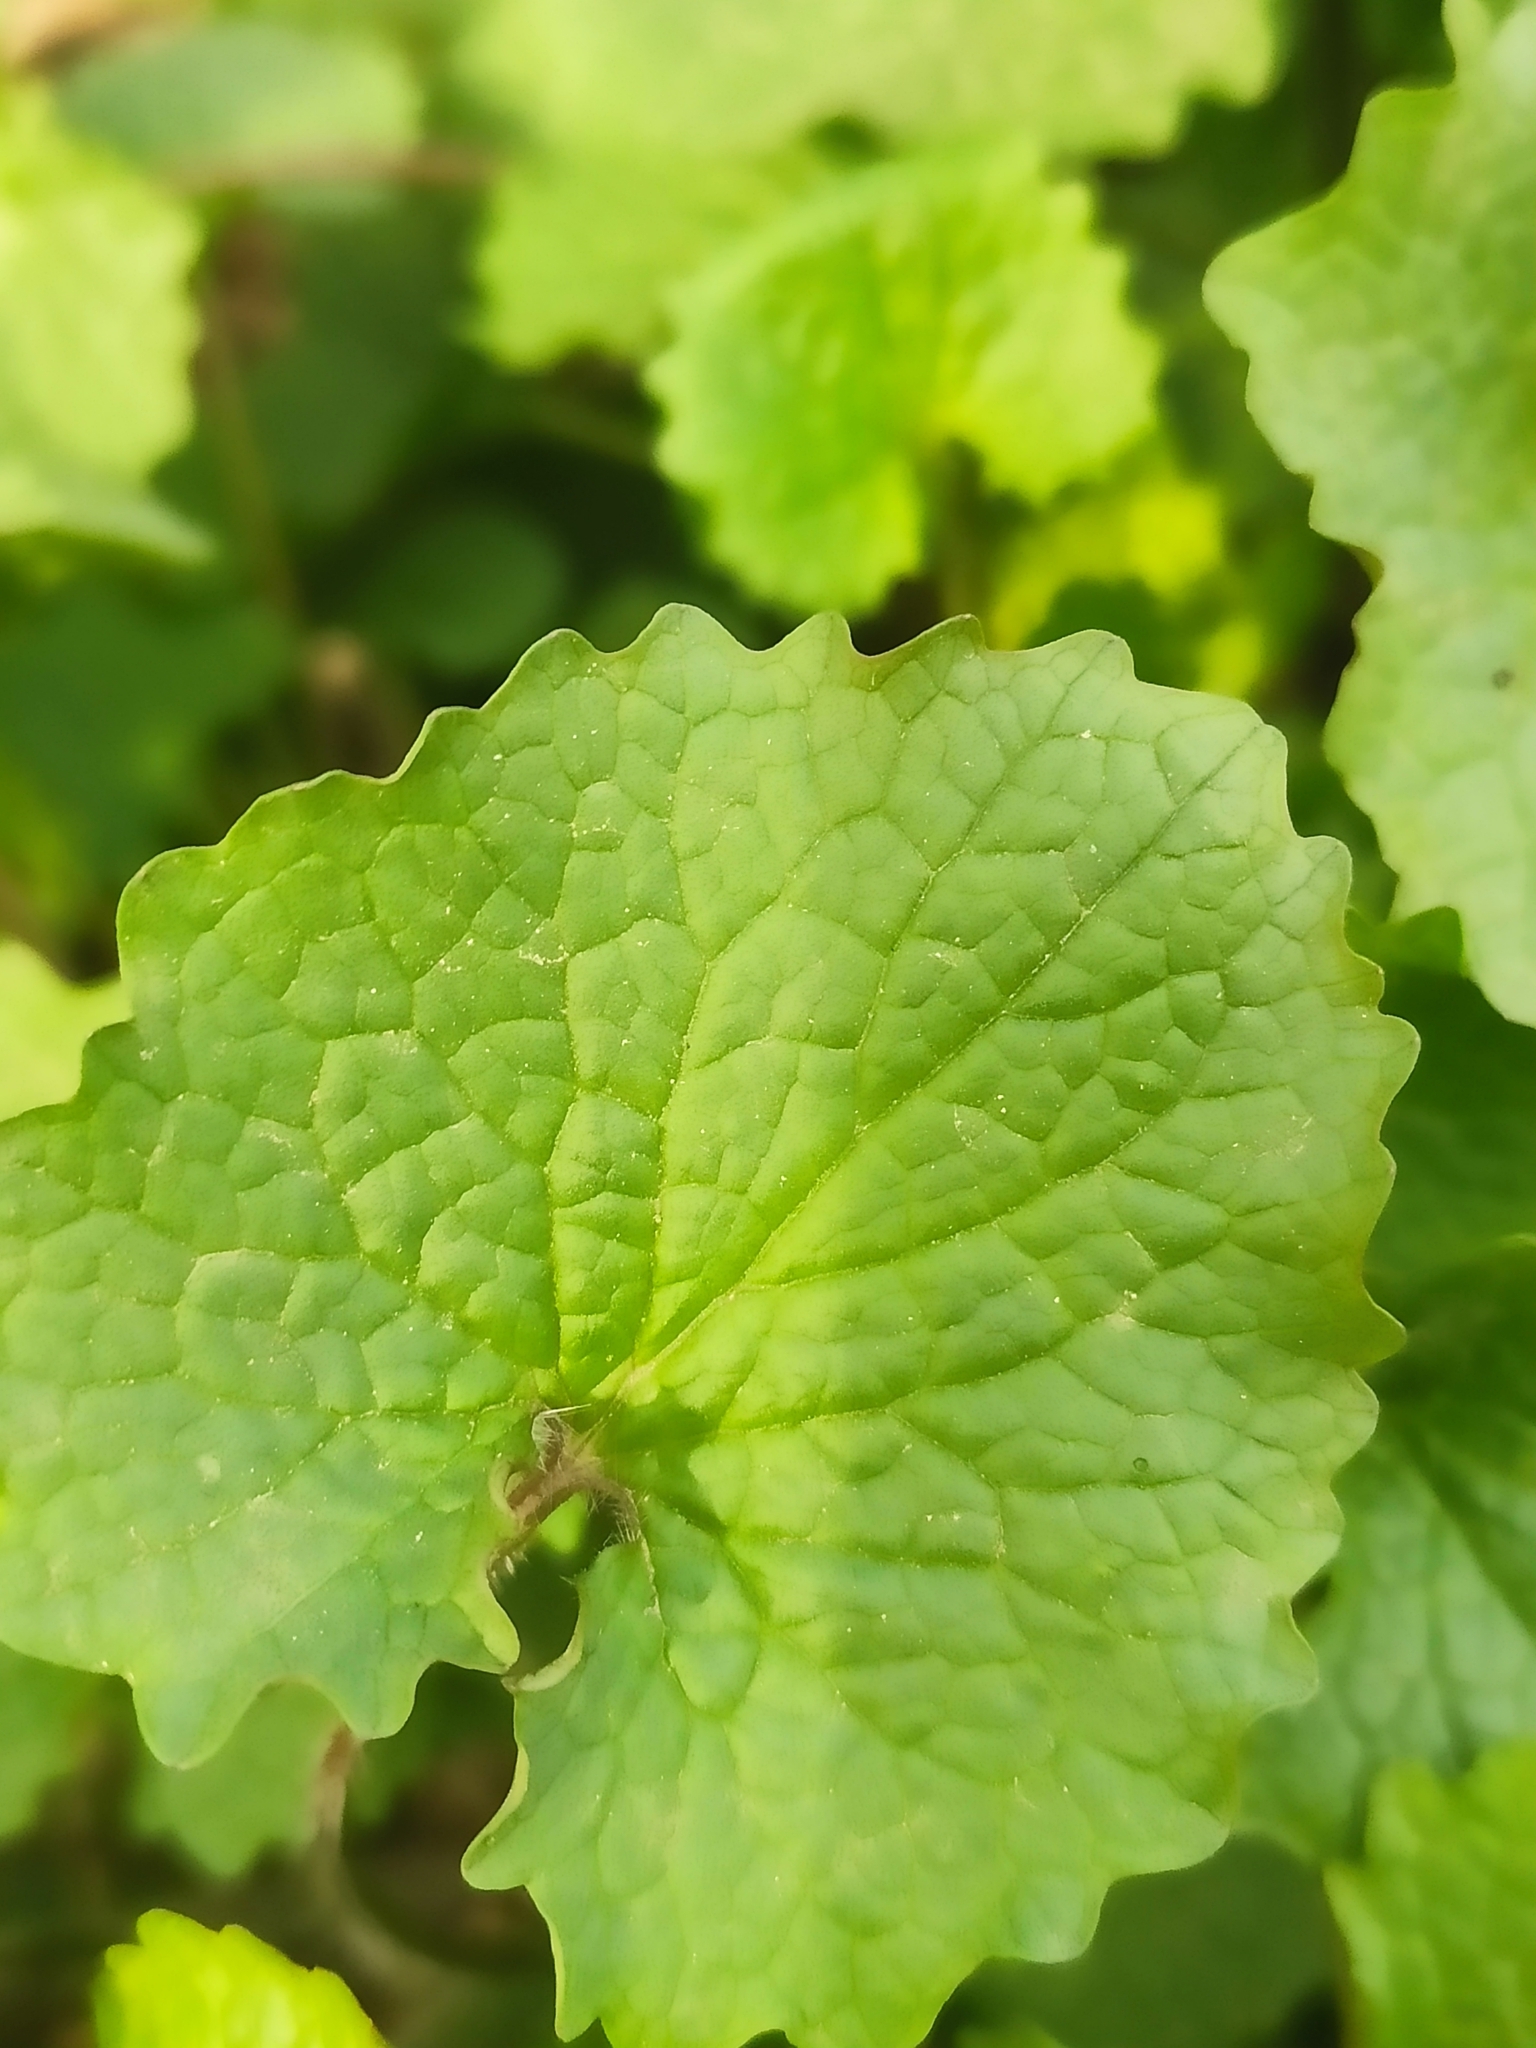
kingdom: Plantae
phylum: Tracheophyta
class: Magnoliopsida
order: Brassicales
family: Brassicaceae
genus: Alliaria
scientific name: Alliaria petiolata
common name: Garlic mustard
